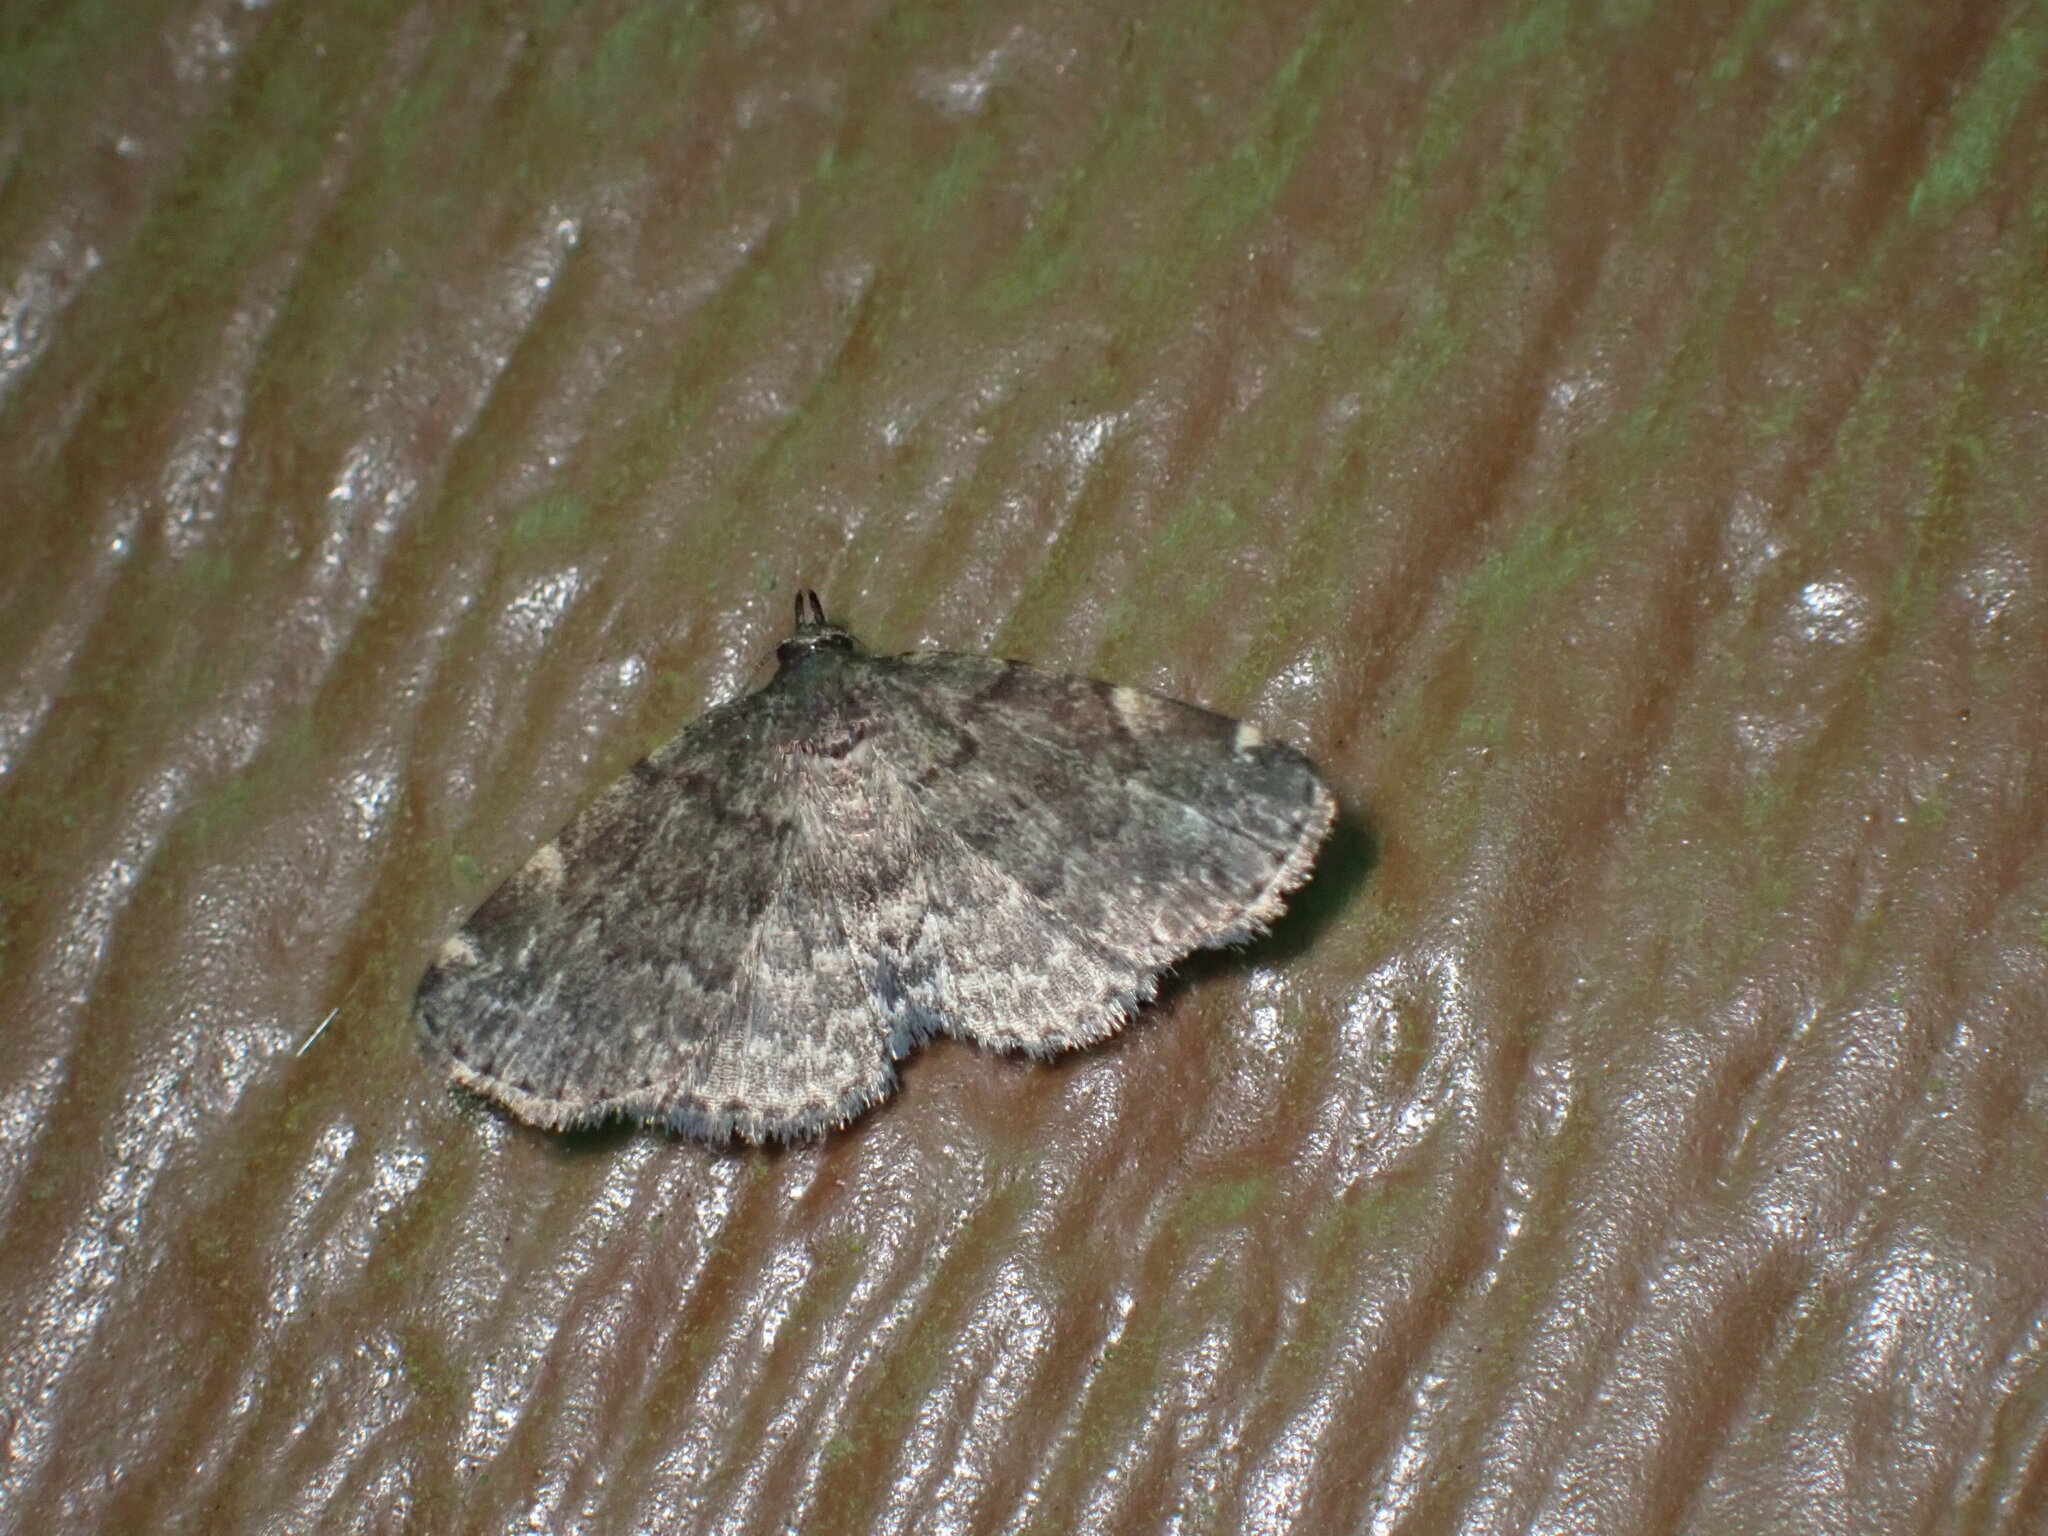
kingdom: Animalia
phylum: Arthropoda
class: Insecta
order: Lepidoptera
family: Erebidae
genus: Idia
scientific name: Idia forbesii
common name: Forbes' idia moth
